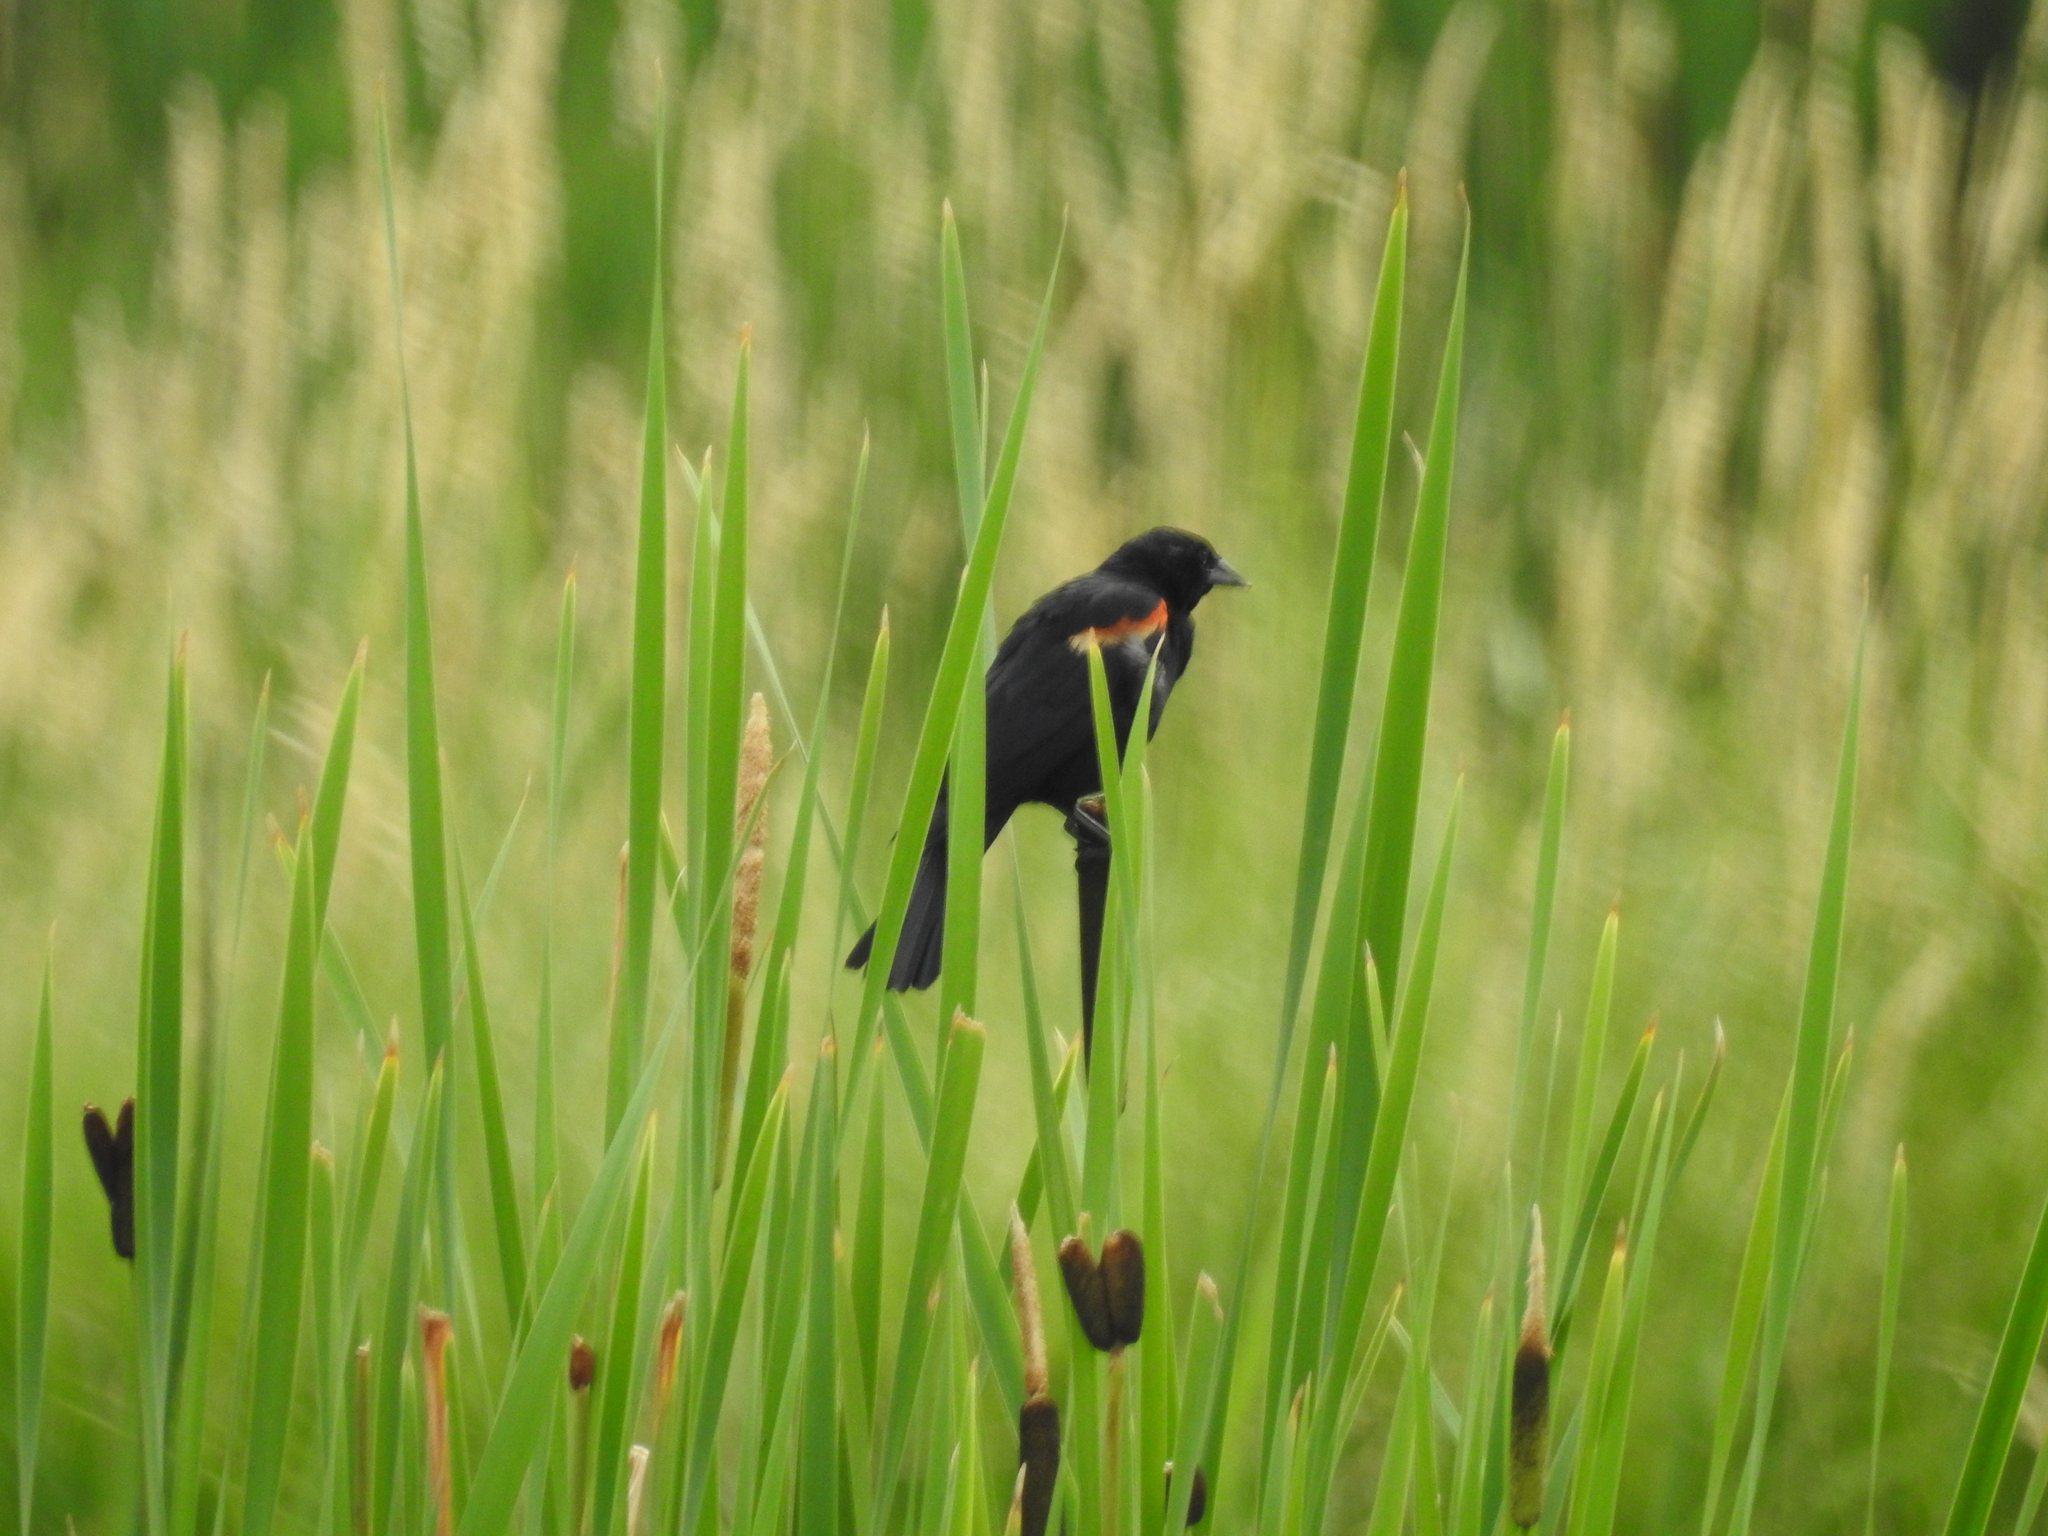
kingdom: Animalia
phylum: Chordata
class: Aves
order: Passeriformes
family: Icteridae
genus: Agelaius
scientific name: Agelaius phoeniceus
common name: Red-winged blackbird
